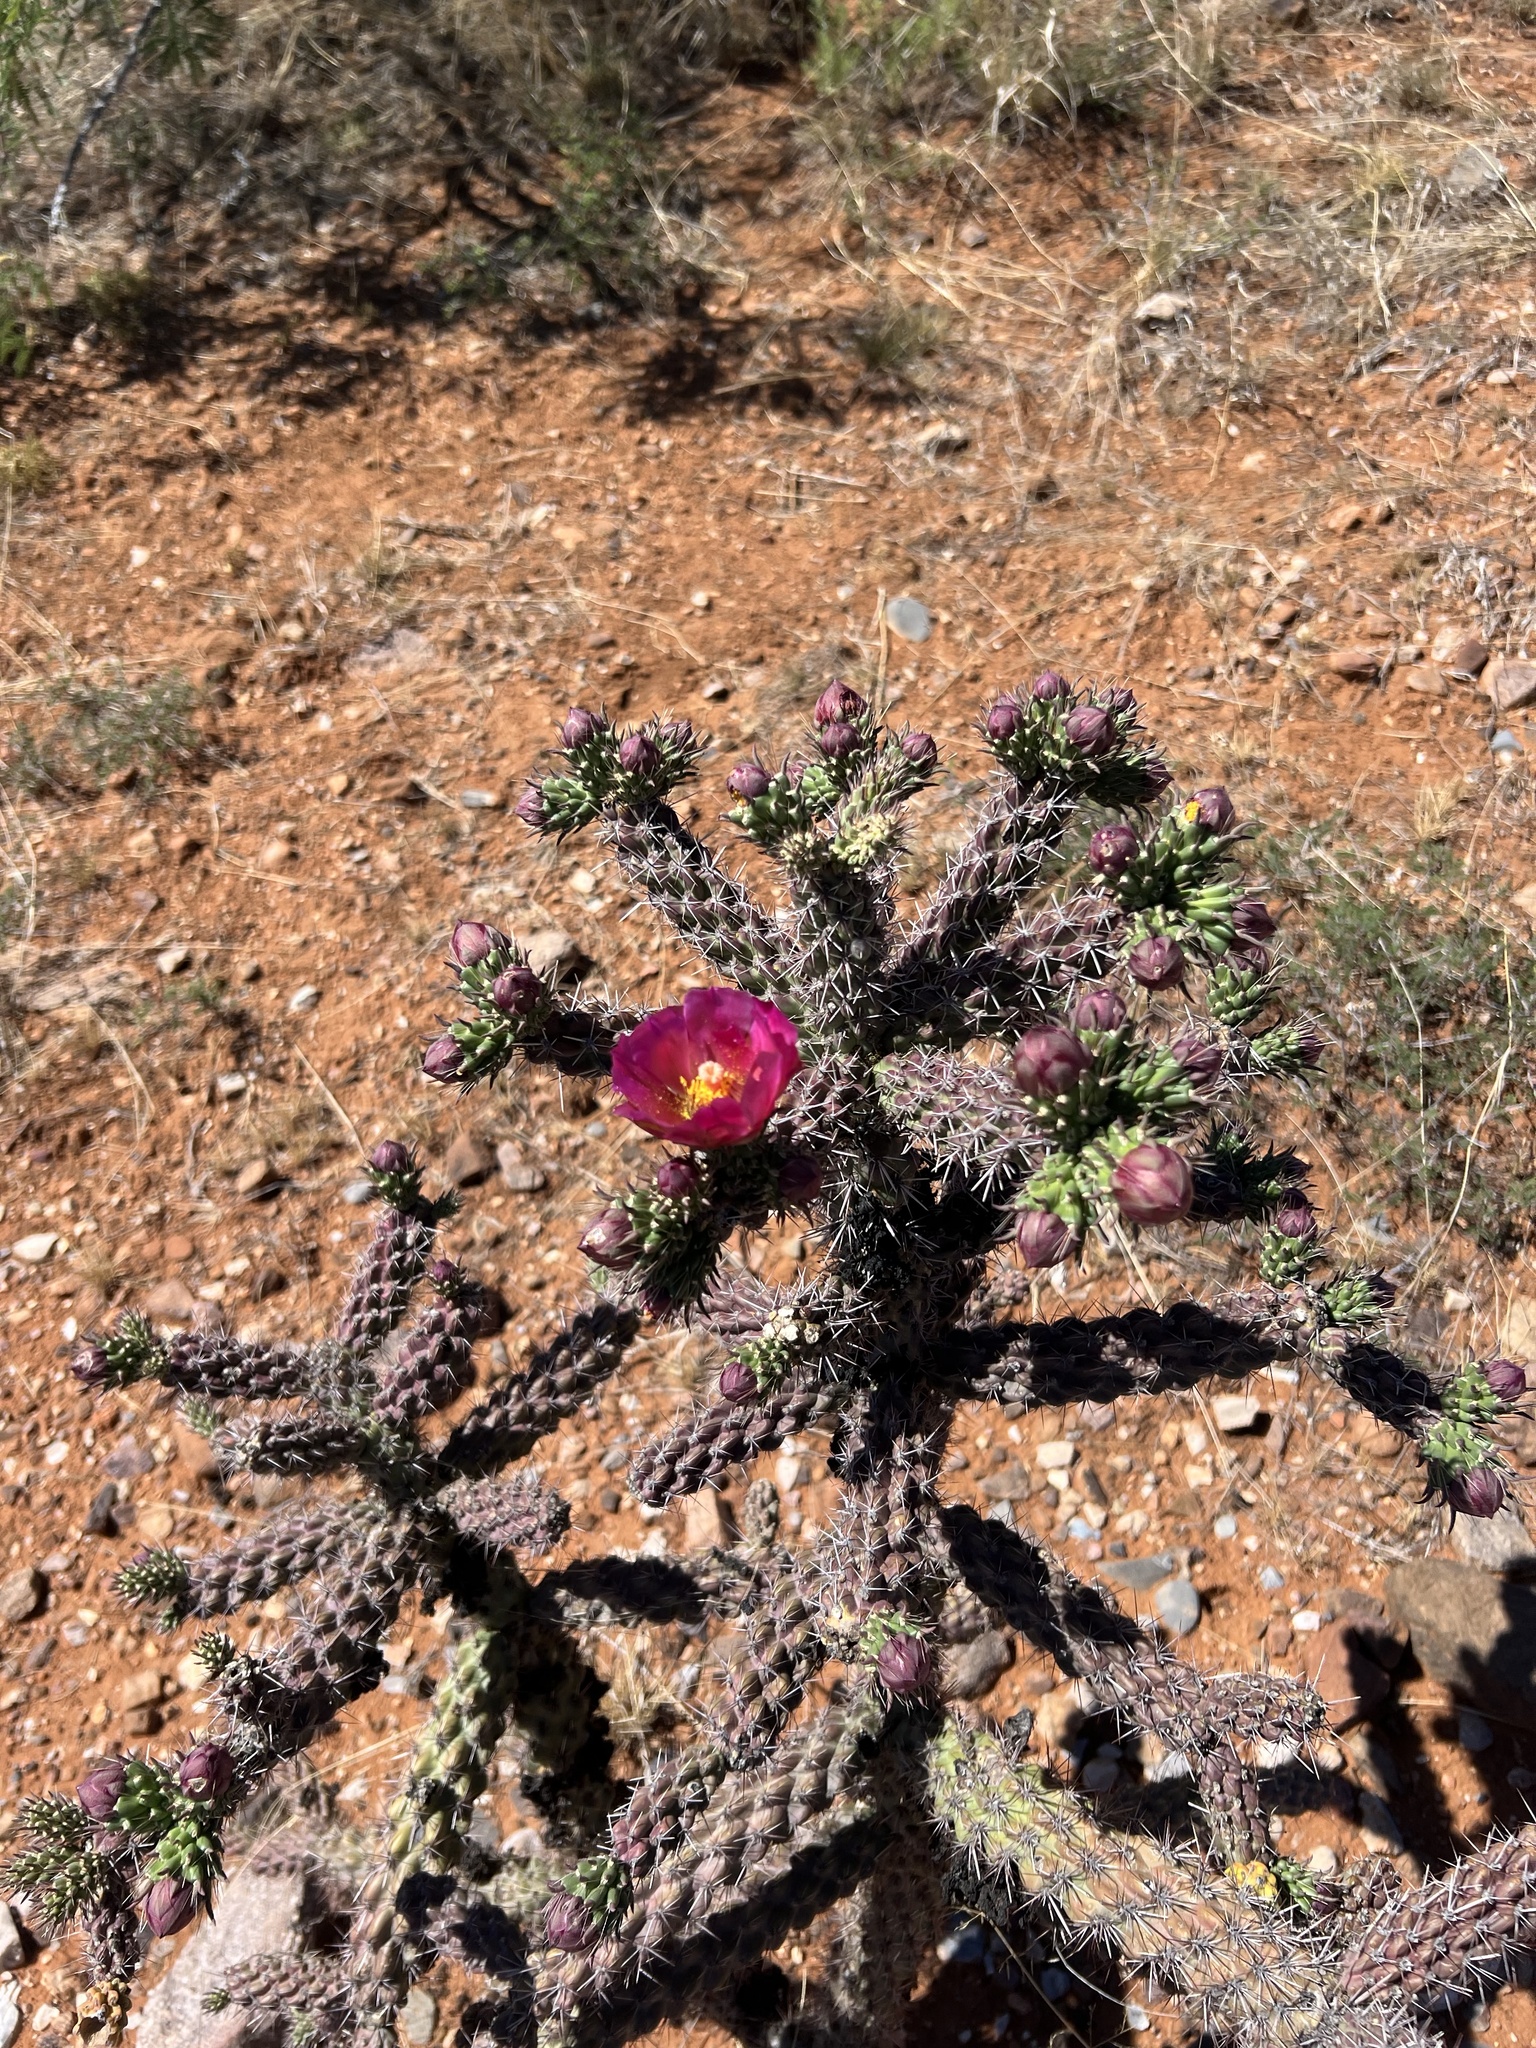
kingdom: Plantae
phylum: Tracheophyta
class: Magnoliopsida
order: Caryophyllales
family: Cactaceae
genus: Cylindropuntia
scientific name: Cylindropuntia imbricata
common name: Candelabrum cactus
